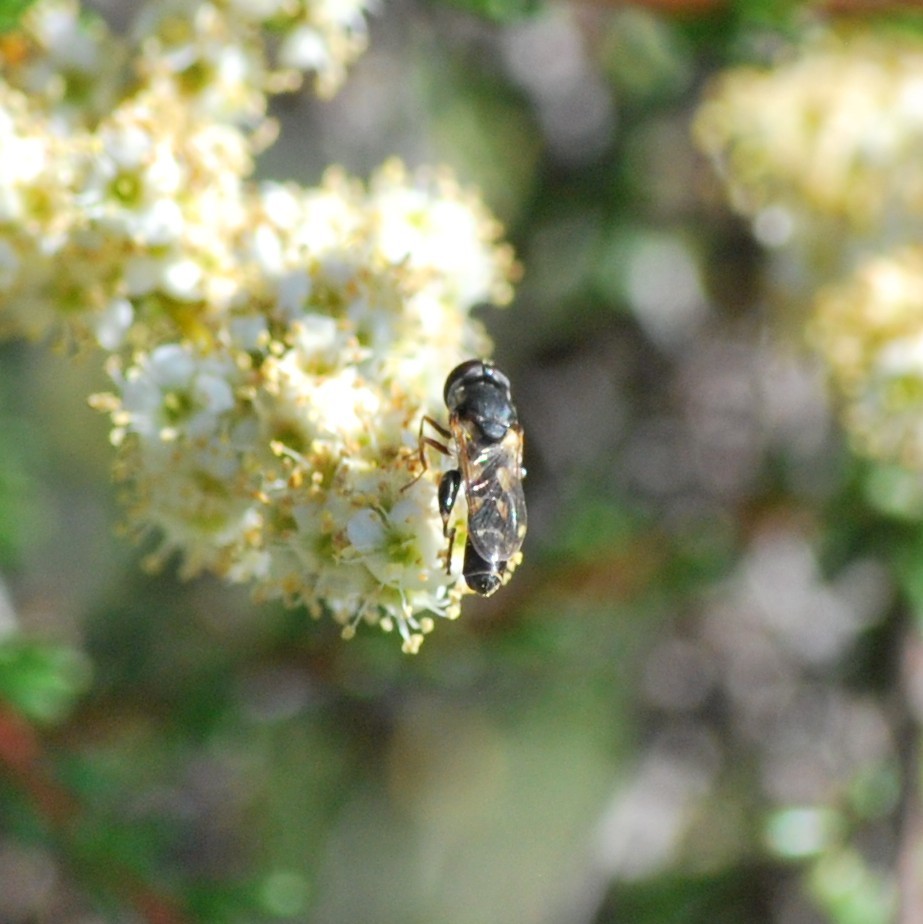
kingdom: Animalia
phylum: Arthropoda
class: Insecta
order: Diptera
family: Syrphidae
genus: Syritta
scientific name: Syritta pipiens
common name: Hover fly
